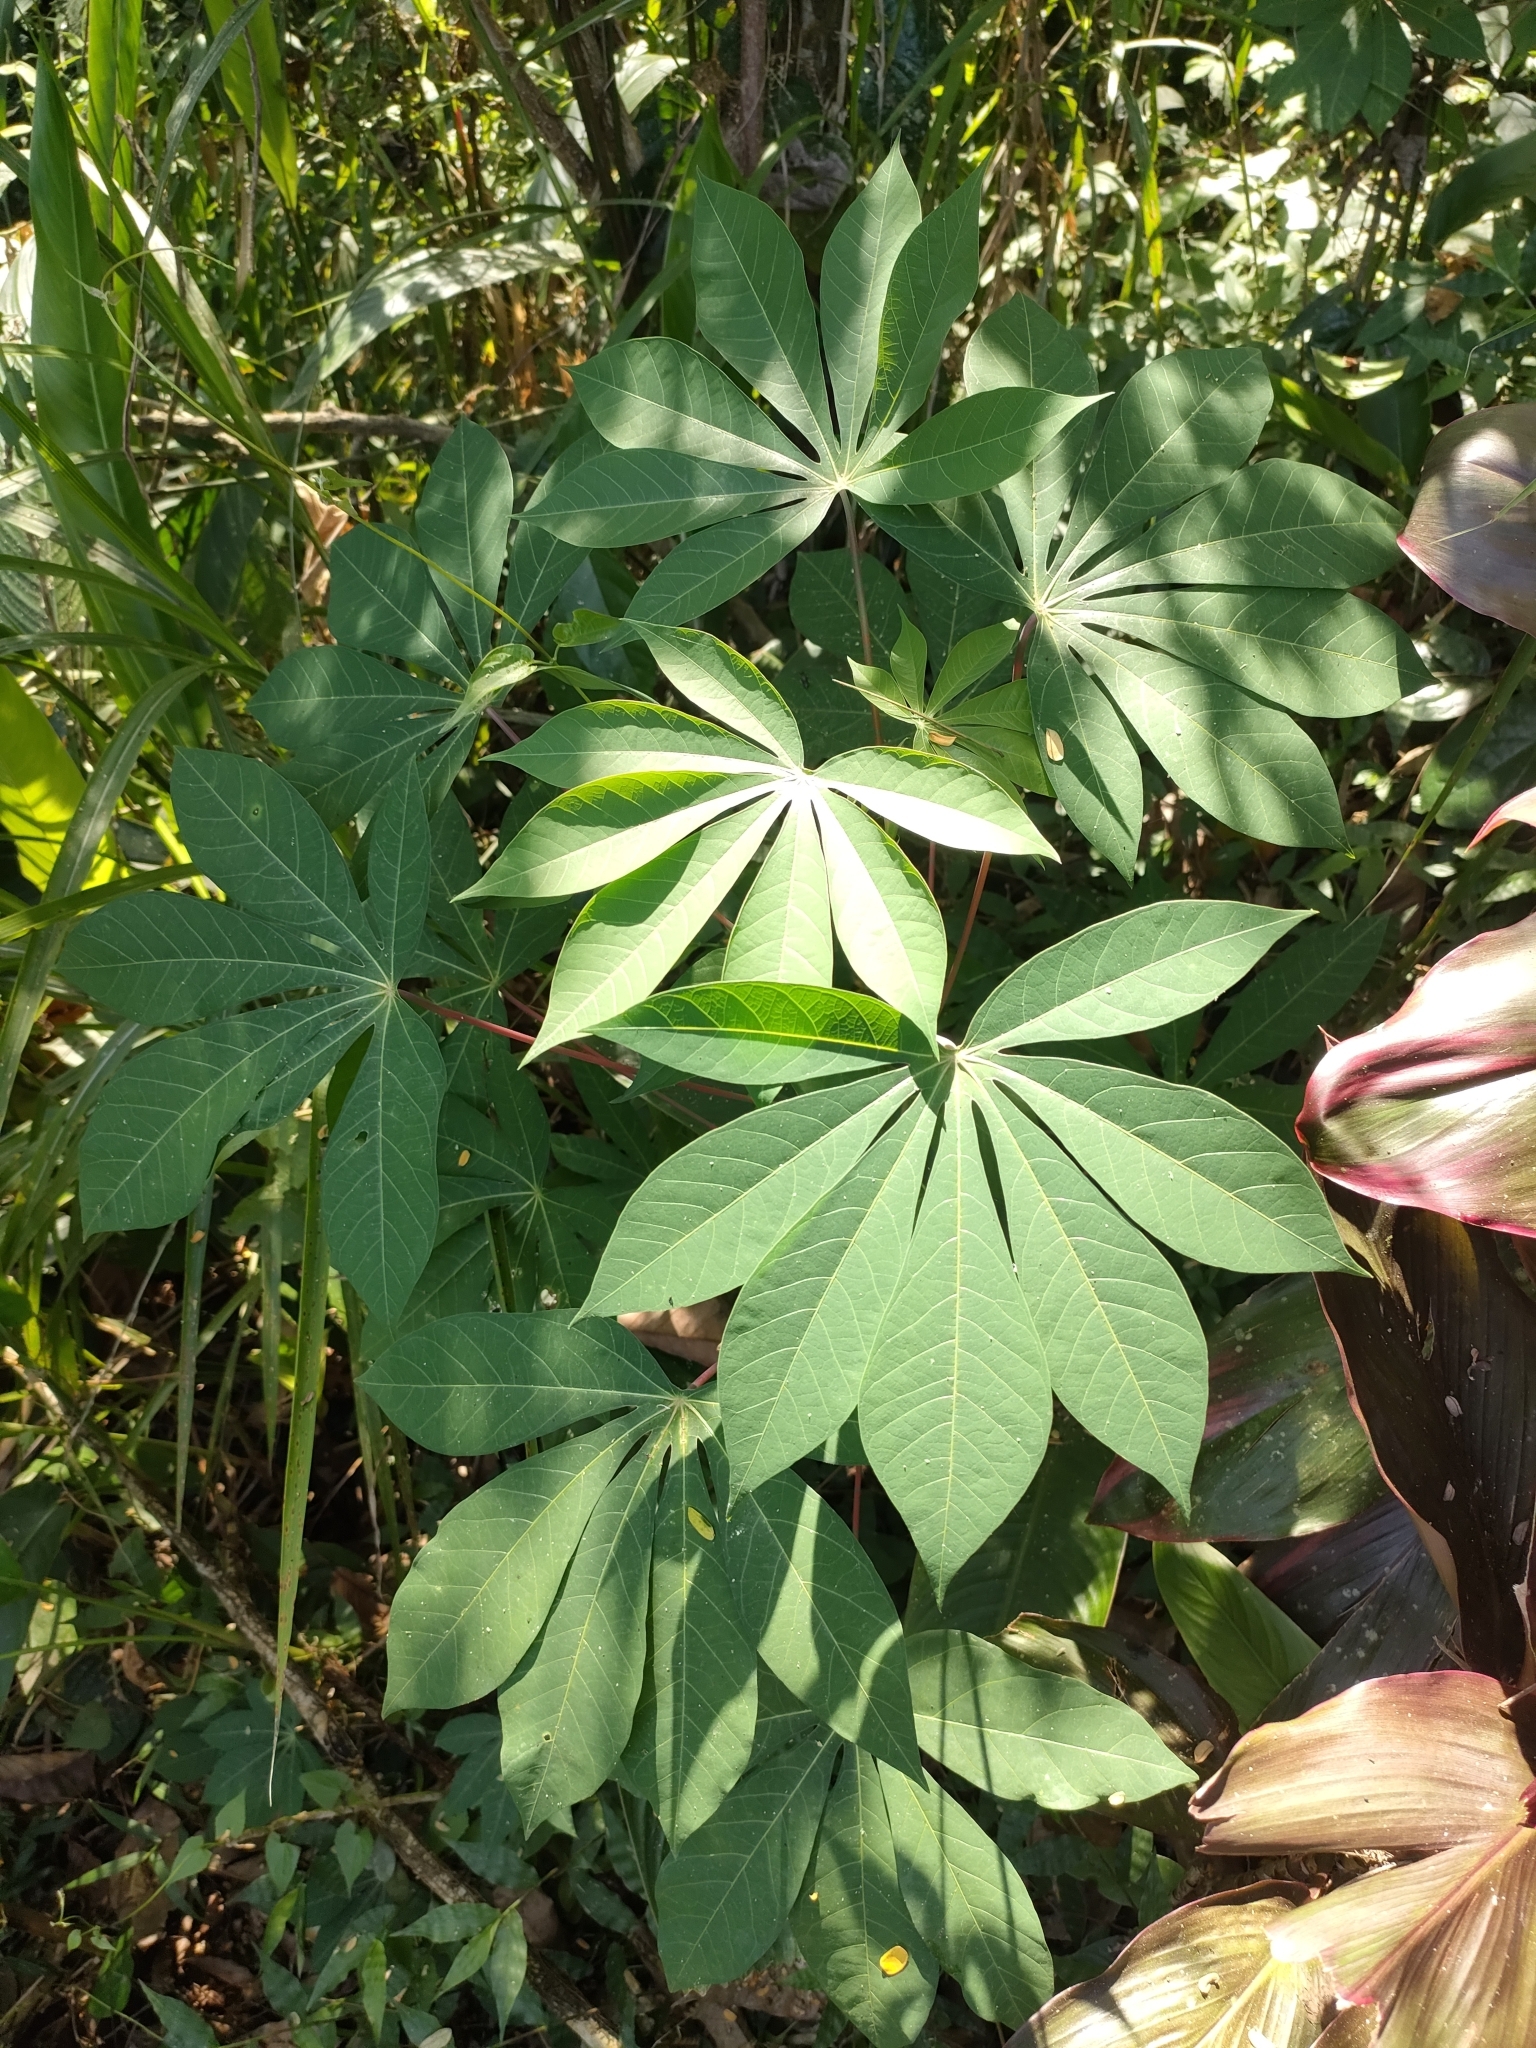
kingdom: Plantae
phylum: Tracheophyta
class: Magnoliopsida
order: Malpighiales
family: Euphorbiaceae
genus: Manihot
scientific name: Manihot esculenta
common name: Cassava
